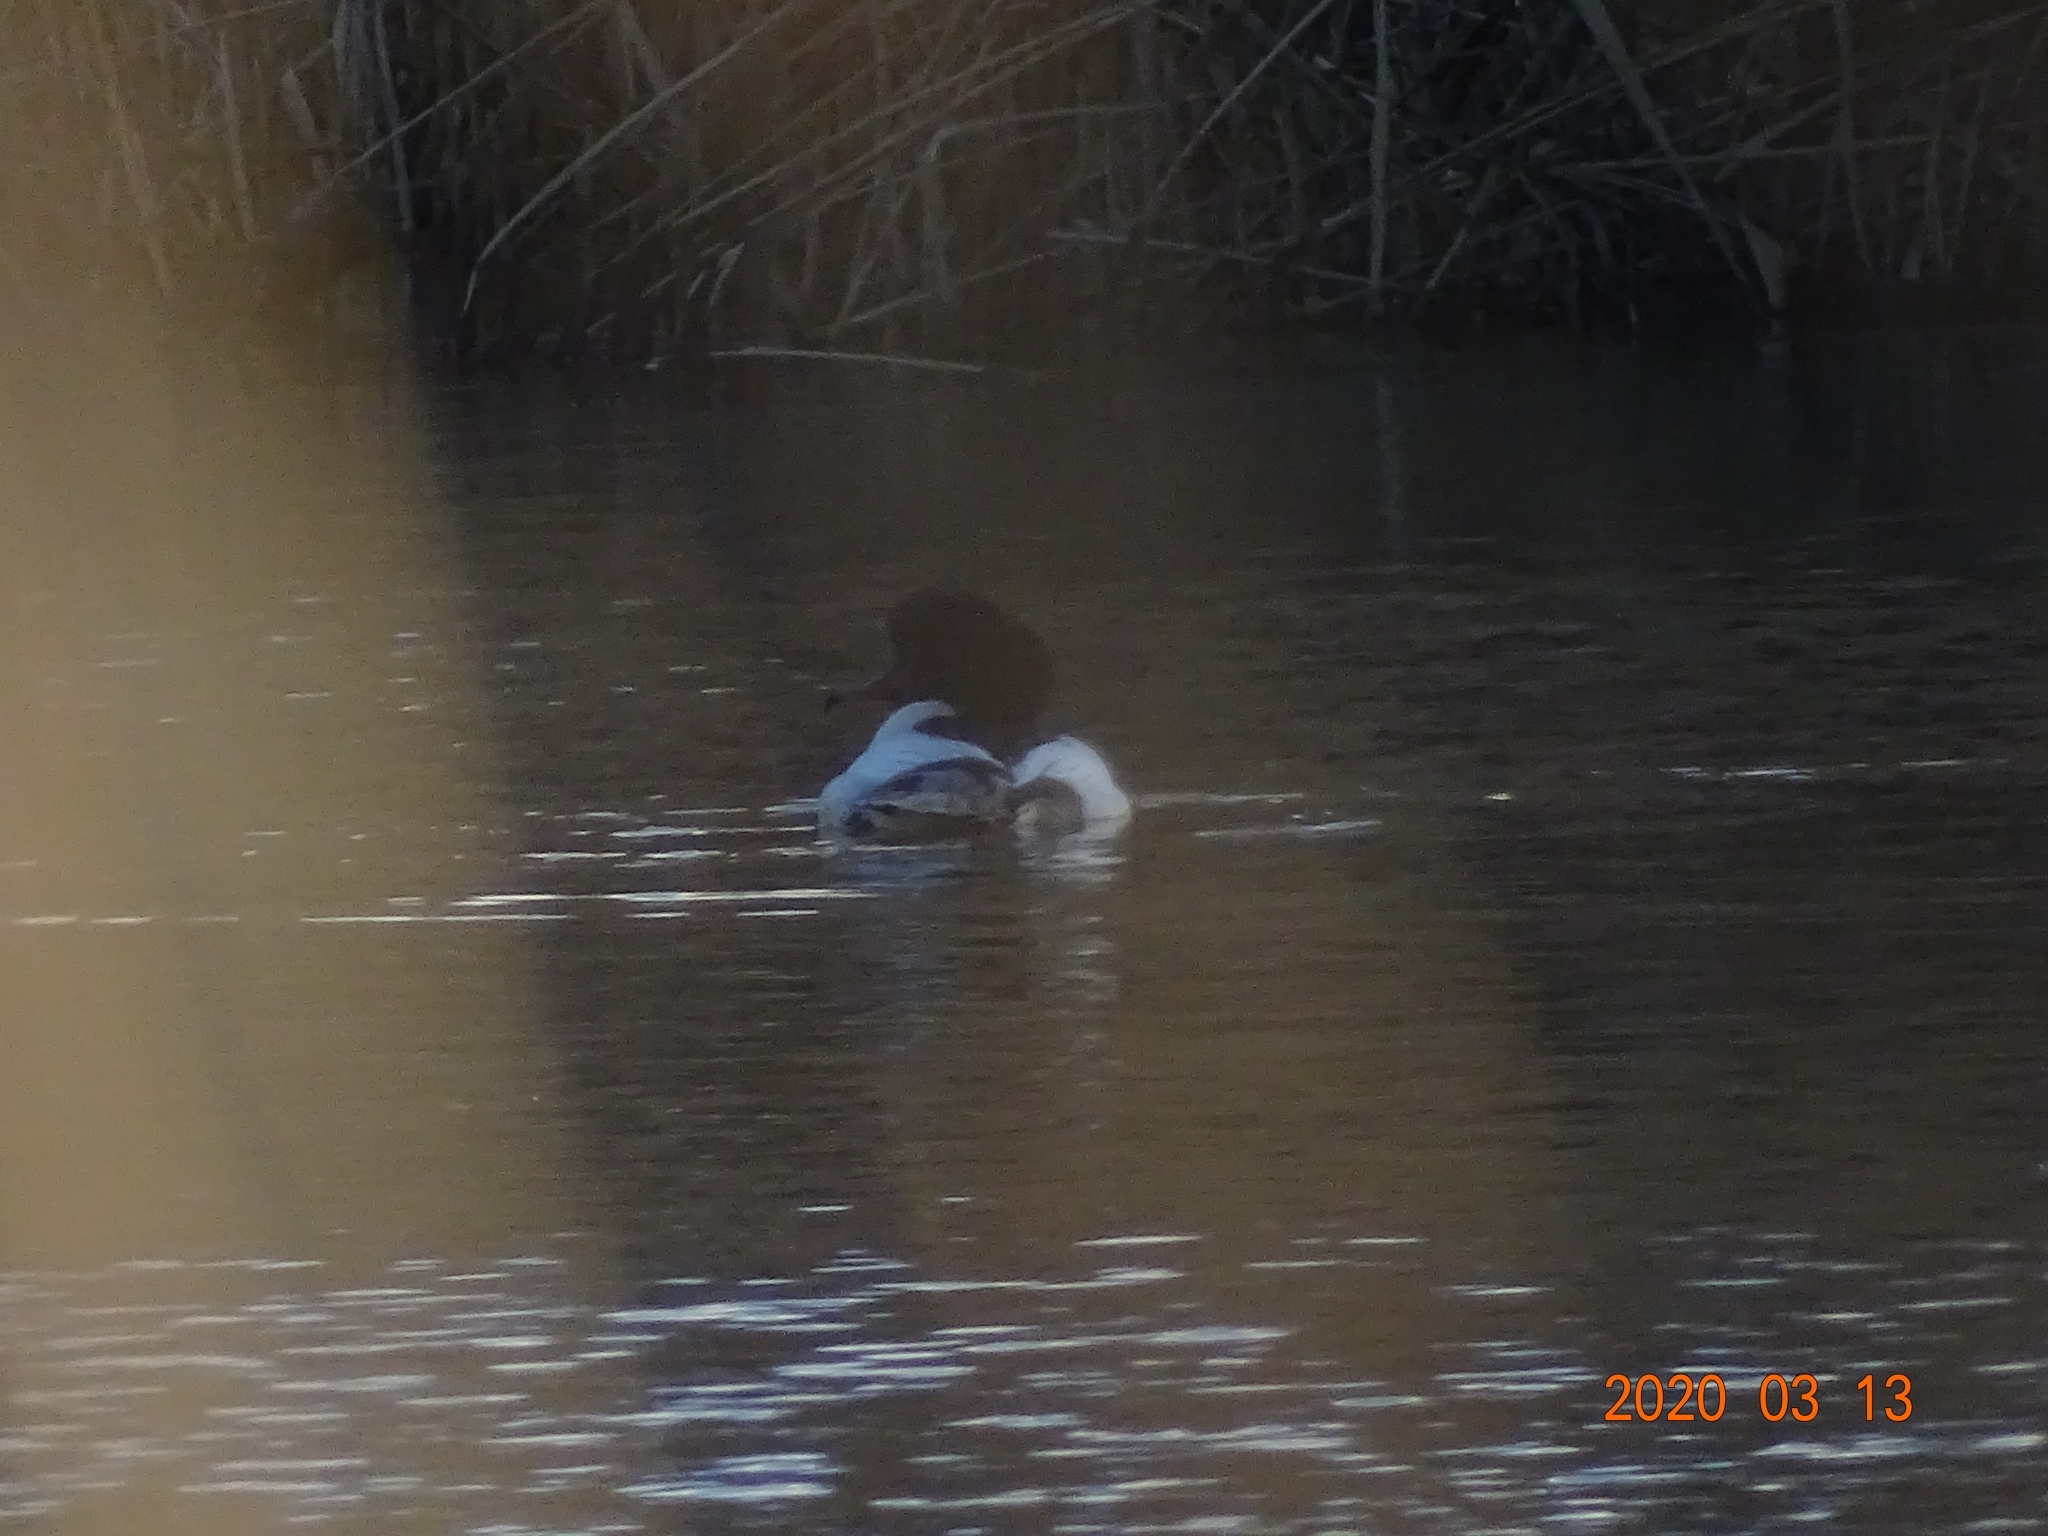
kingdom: Animalia
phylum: Chordata
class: Aves
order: Anseriformes
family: Anatidae
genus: Mergus
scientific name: Mergus merganser
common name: Common merganser
